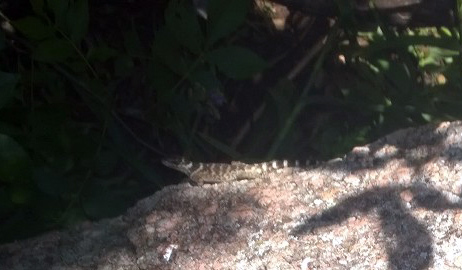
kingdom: Animalia
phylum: Chordata
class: Squamata
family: Phrynosomatidae
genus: Sceloporus
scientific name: Sceloporus poinsettii
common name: Crevice spiny lizard
